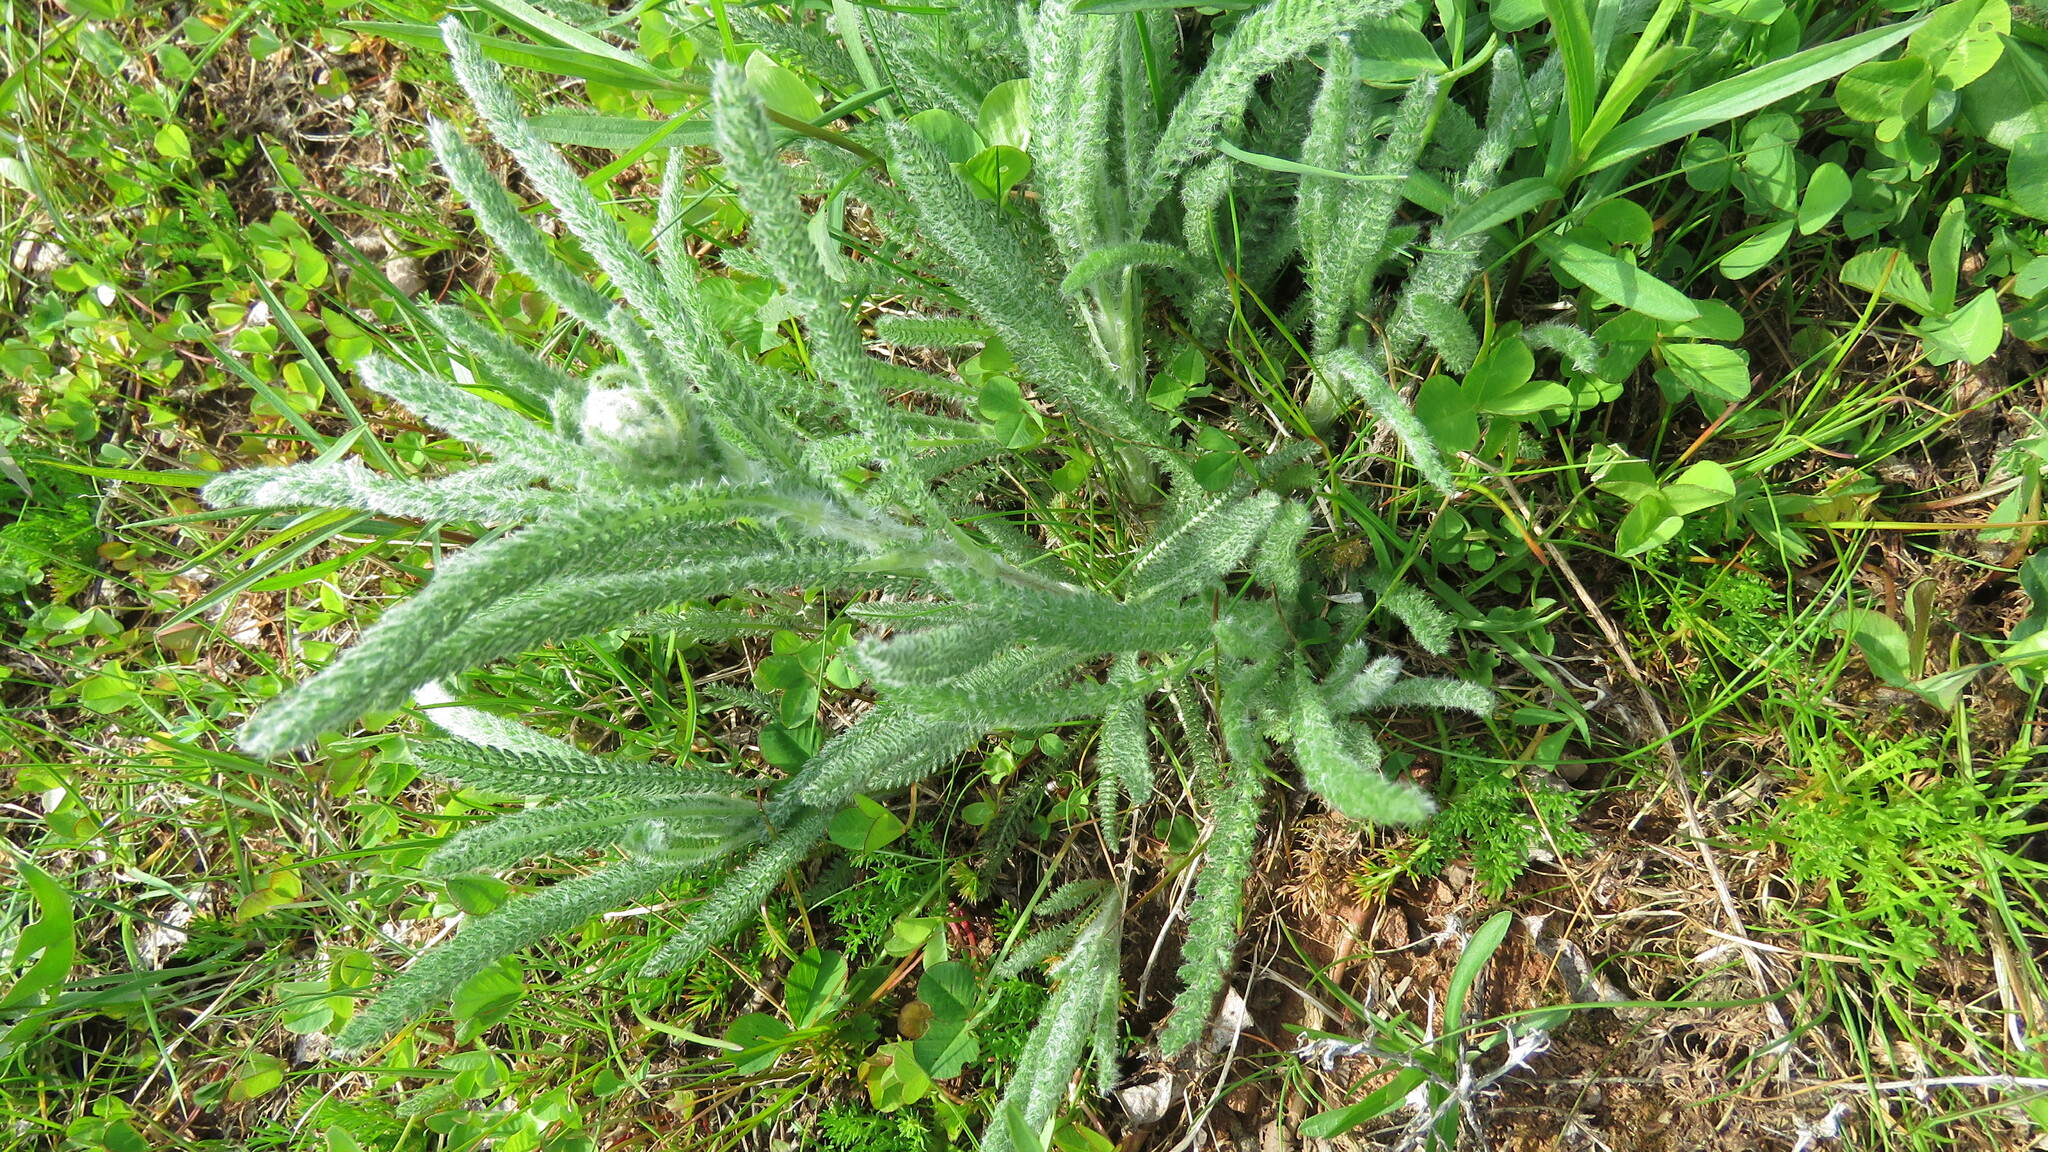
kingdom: Plantae
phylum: Tracheophyta
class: Magnoliopsida
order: Asterales
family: Asteraceae
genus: Achillea
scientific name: Achillea millefolium
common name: Yarrow
